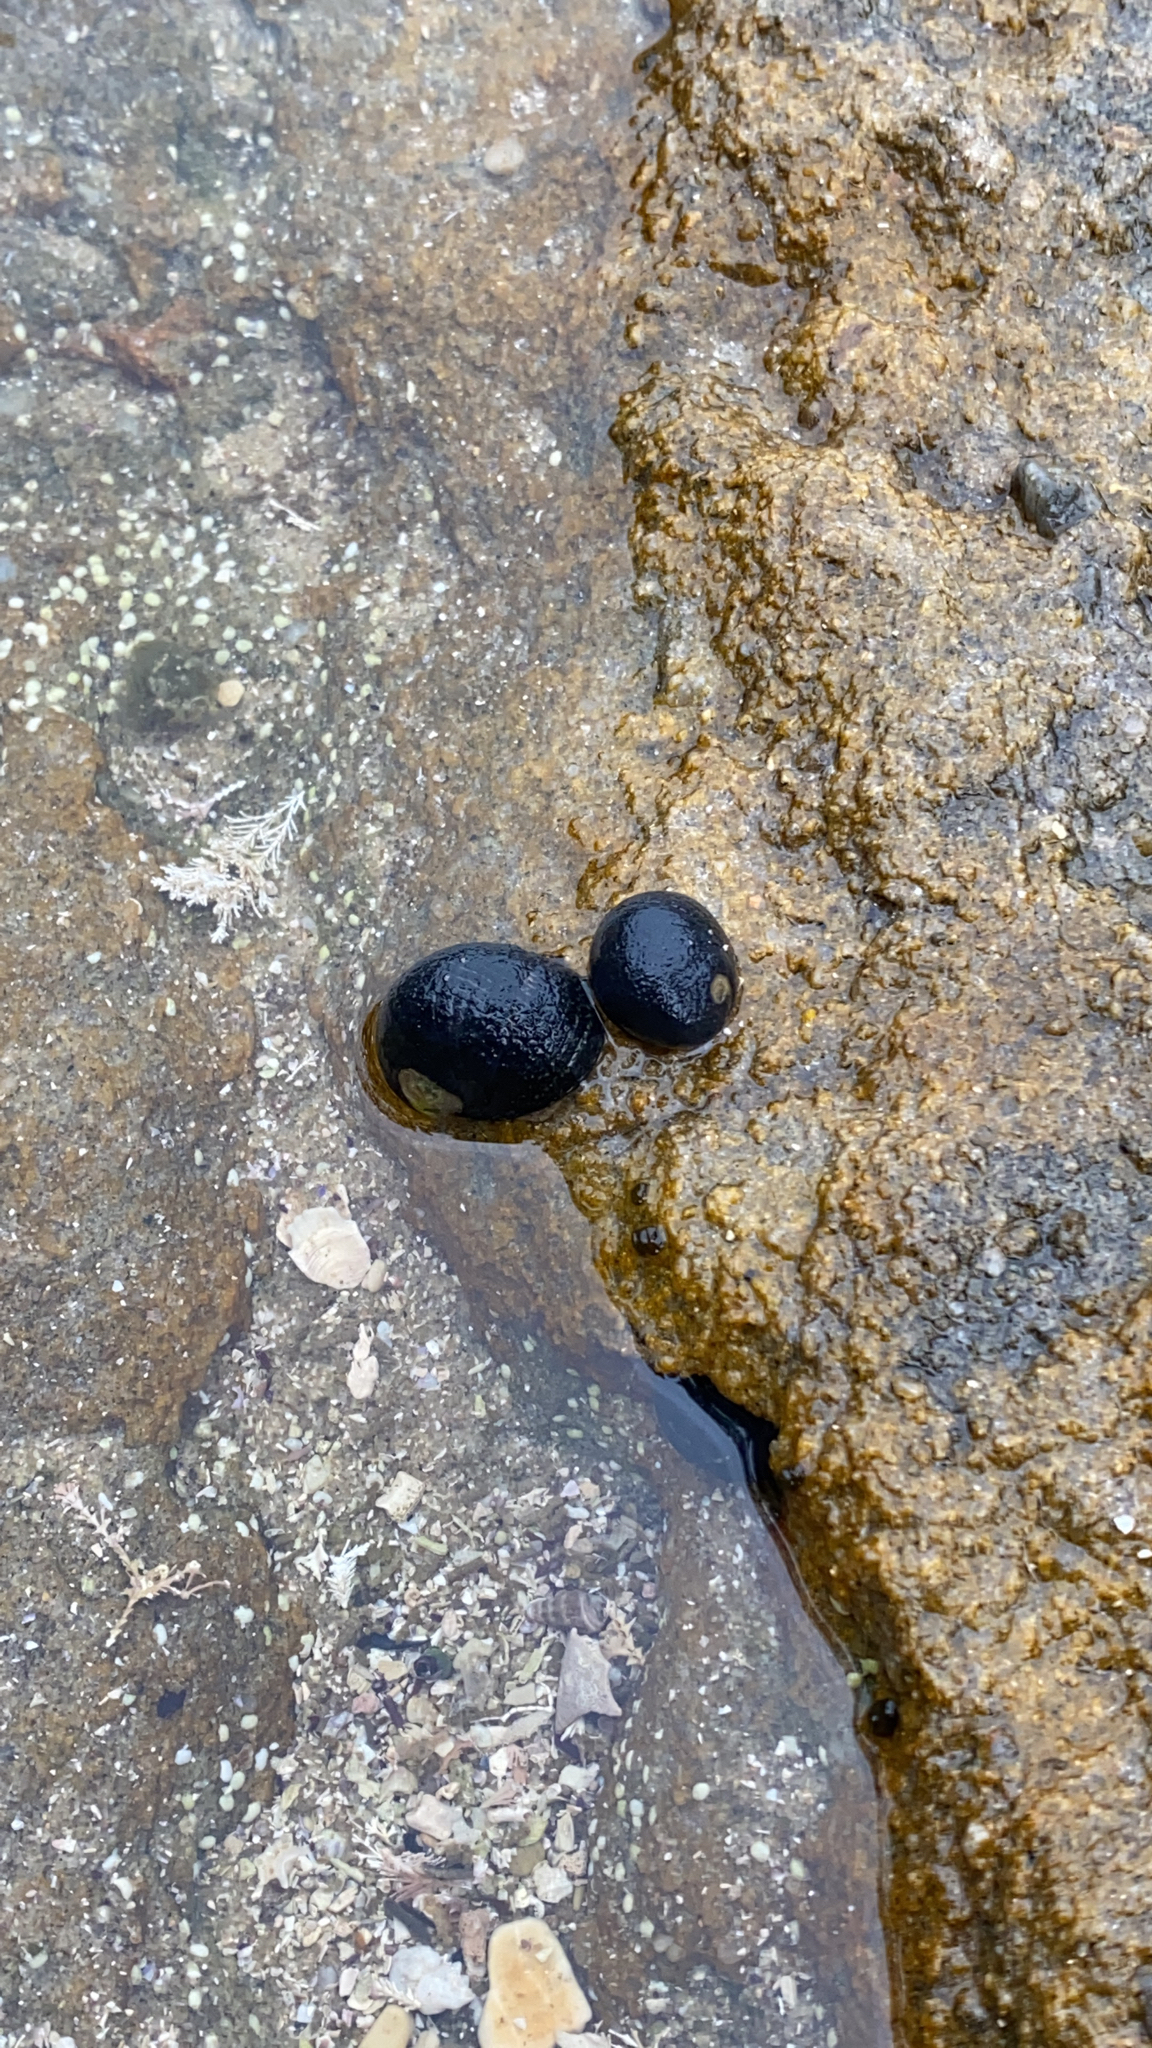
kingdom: Animalia
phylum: Mollusca
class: Gastropoda
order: Cycloneritida
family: Neritidae
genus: Nerita
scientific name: Nerita melanotragus
